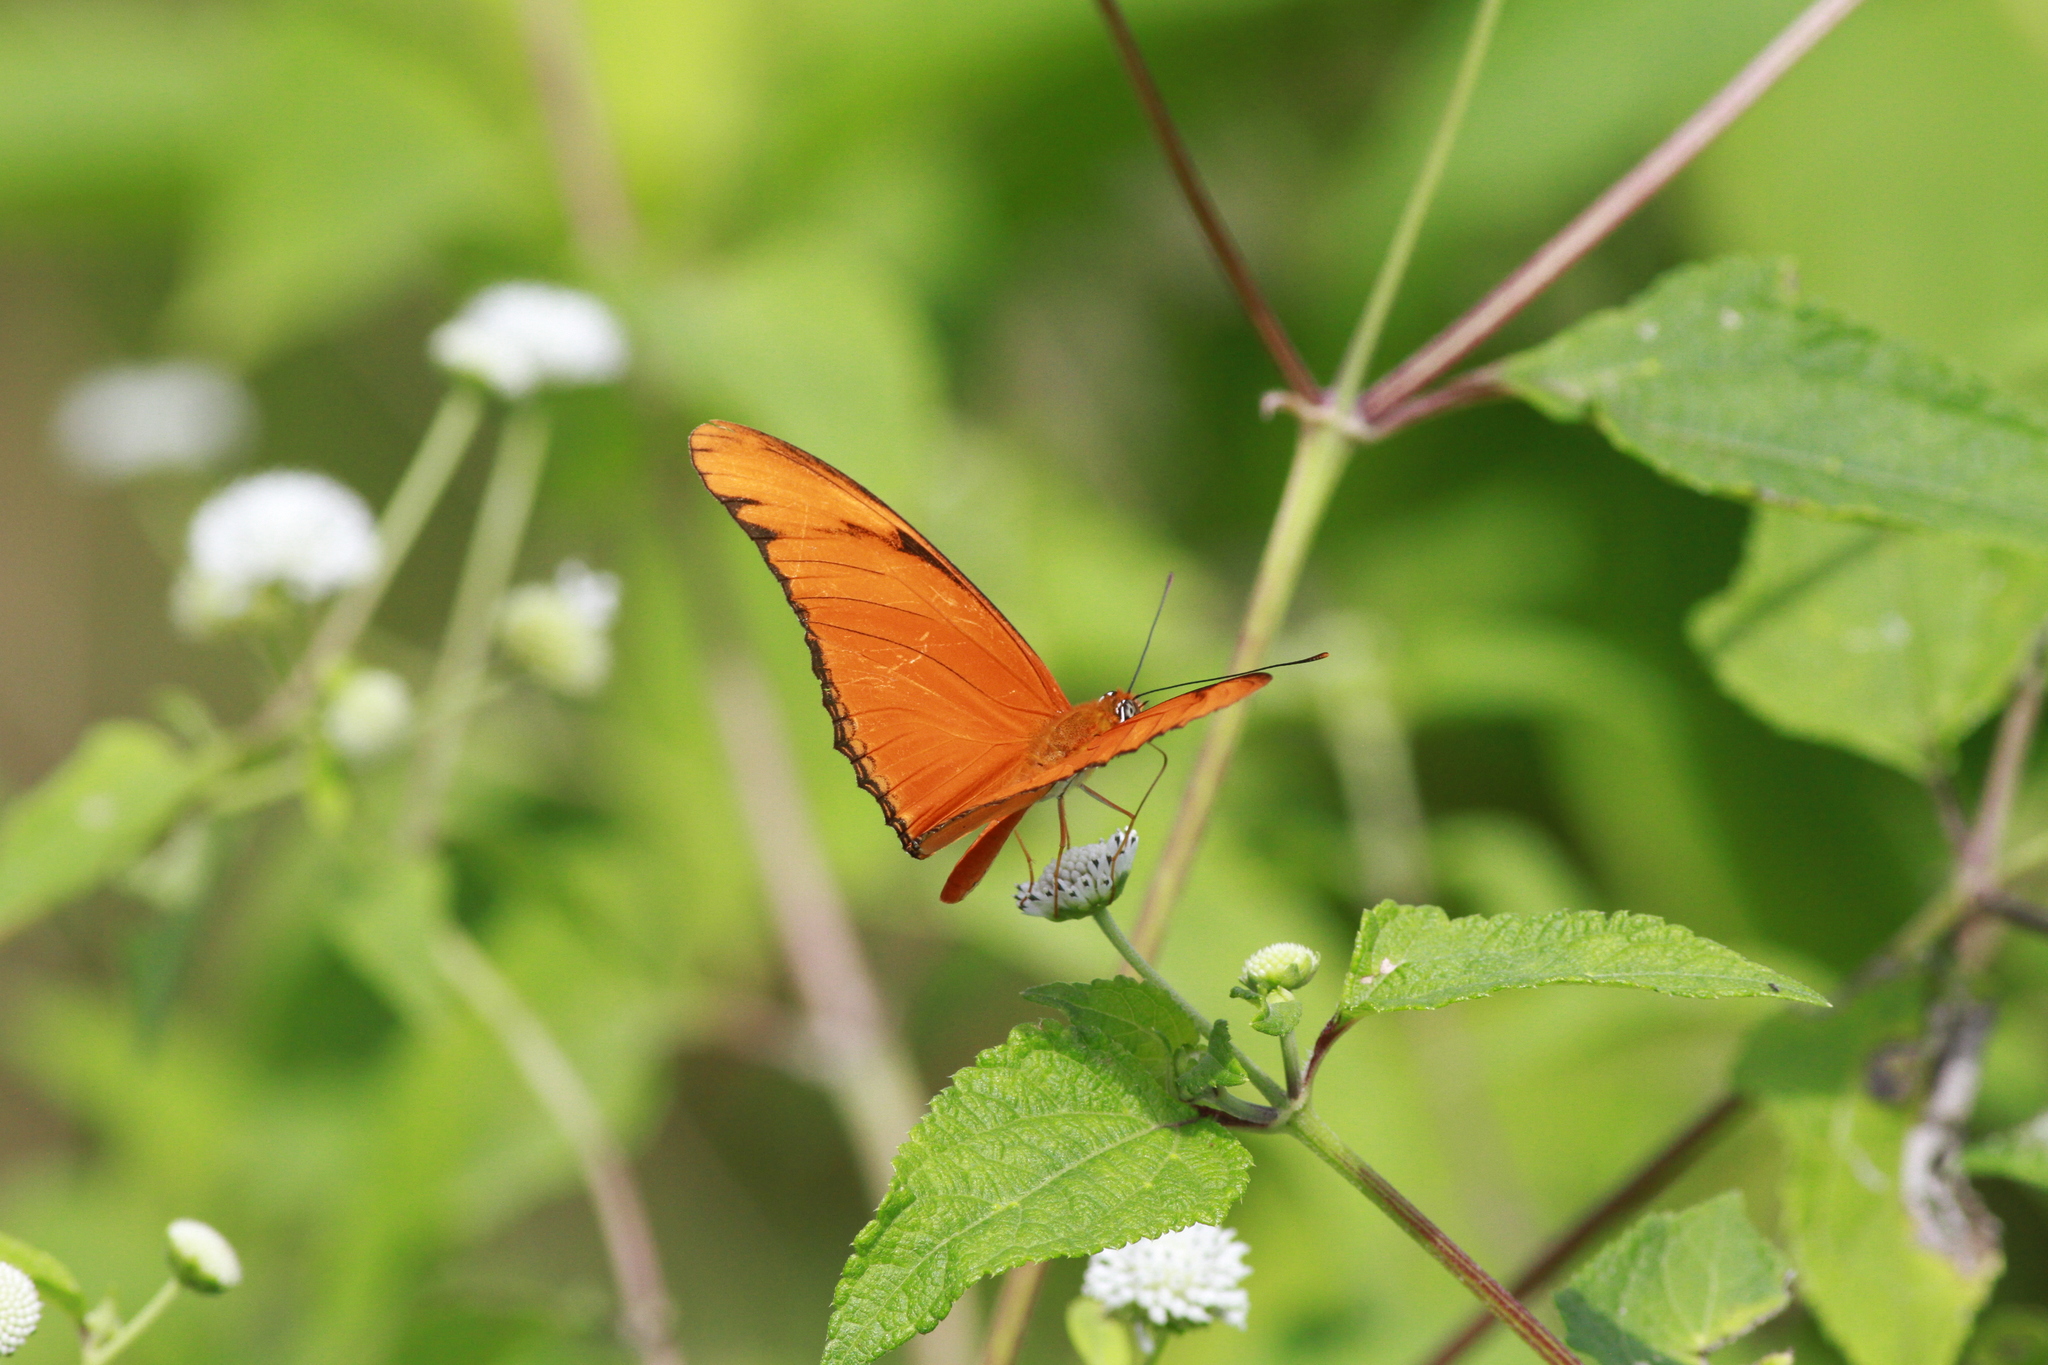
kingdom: Animalia
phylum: Arthropoda
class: Insecta
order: Lepidoptera
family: Nymphalidae
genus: Dryas
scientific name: Dryas iulia
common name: Flambeau
